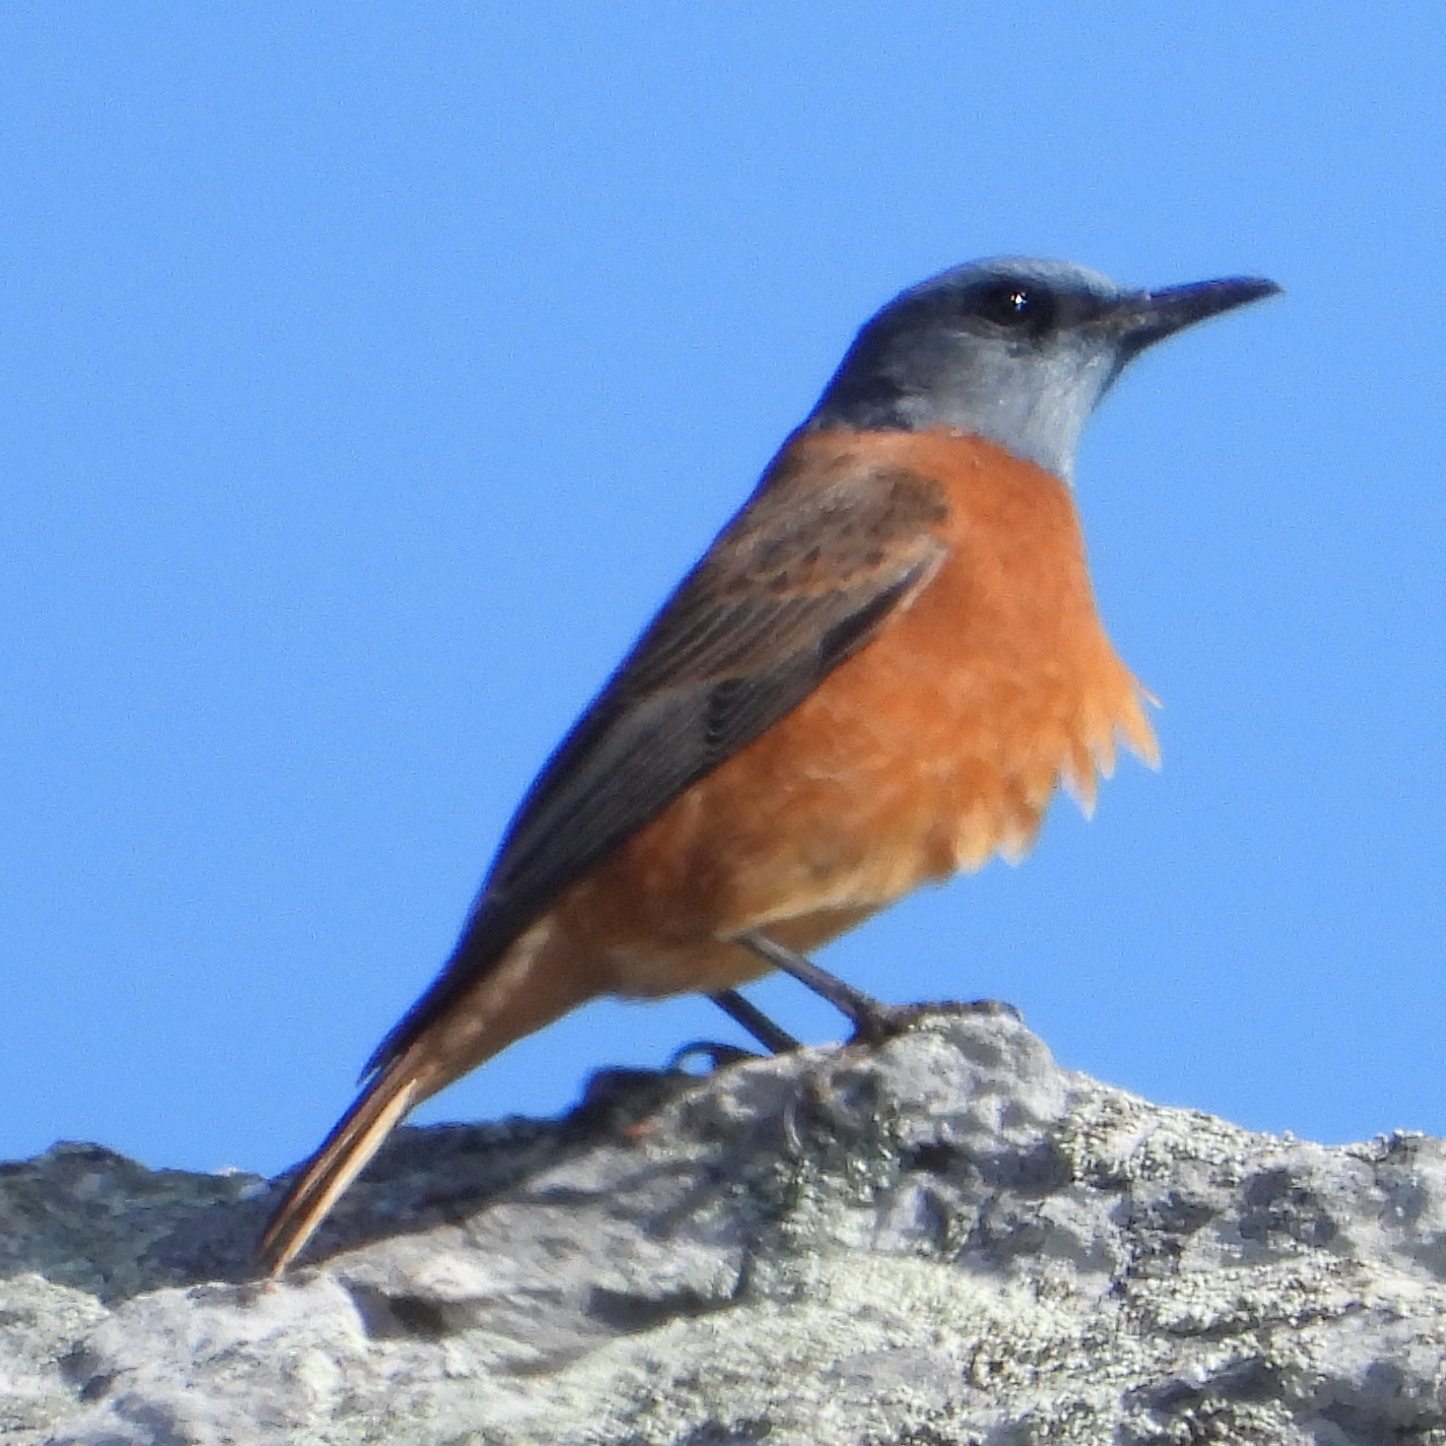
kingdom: Animalia
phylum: Chordata
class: Aves
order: Passeriformes
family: Muscicapidae
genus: Monticola
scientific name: Monticola rupestris
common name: Cape rock thrush
